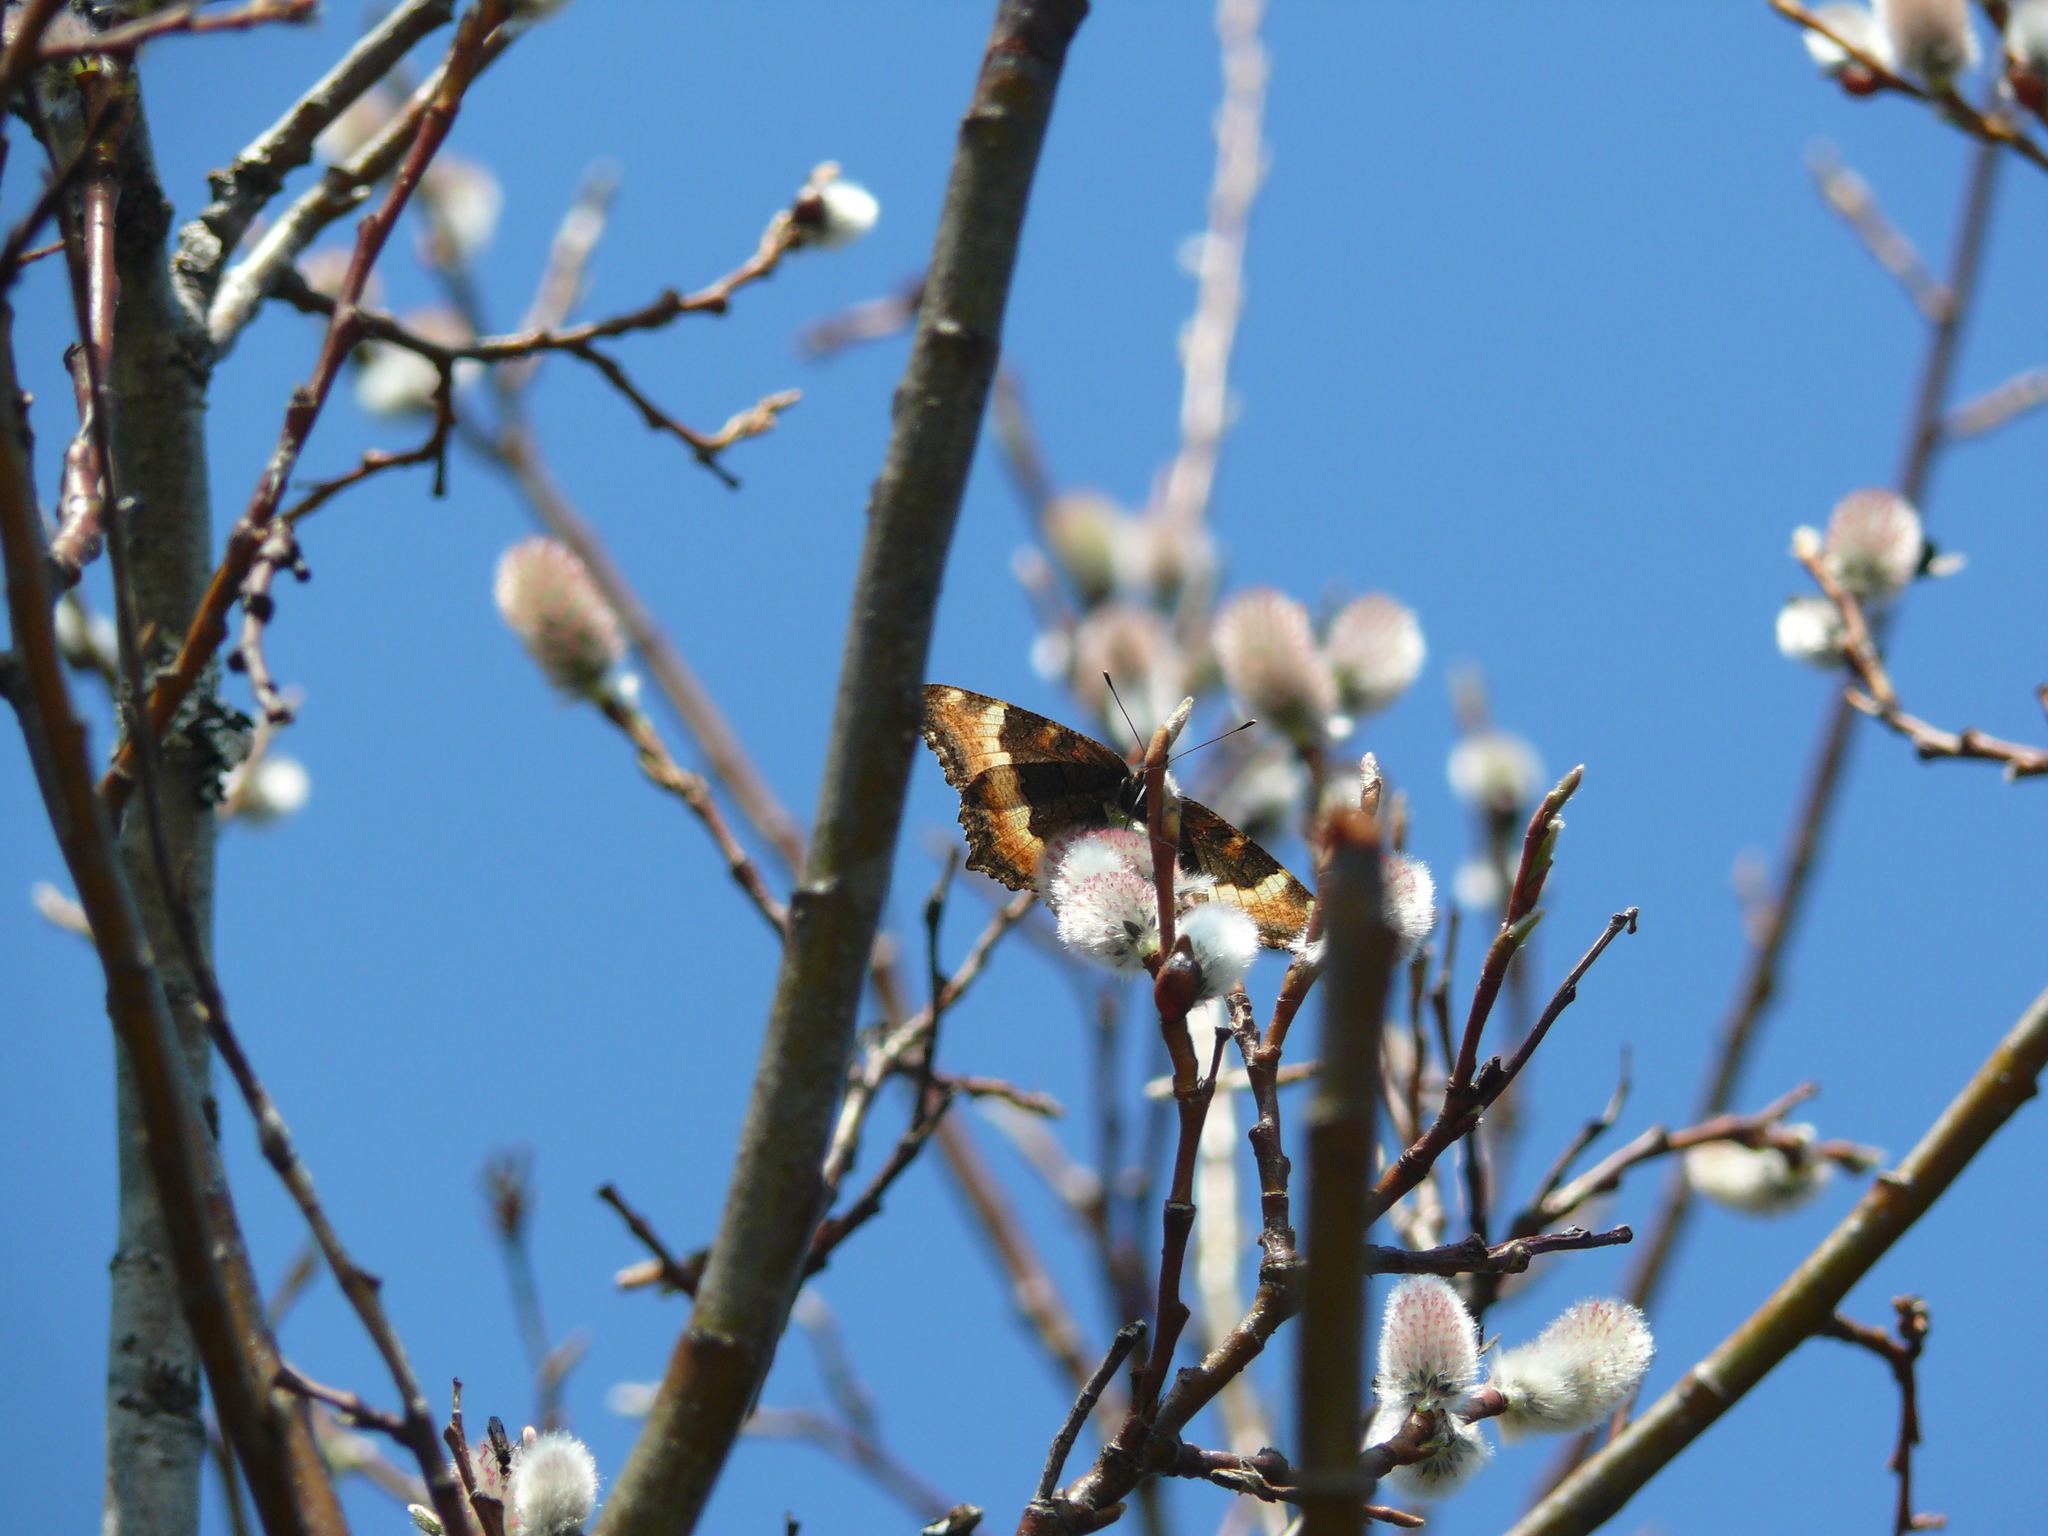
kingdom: Animalia
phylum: Arthropoda
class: Insecta
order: Lepidoptera
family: Nymphalidae
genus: Aglais
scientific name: Aglais milberti
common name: Milbert's tortoiseshell
